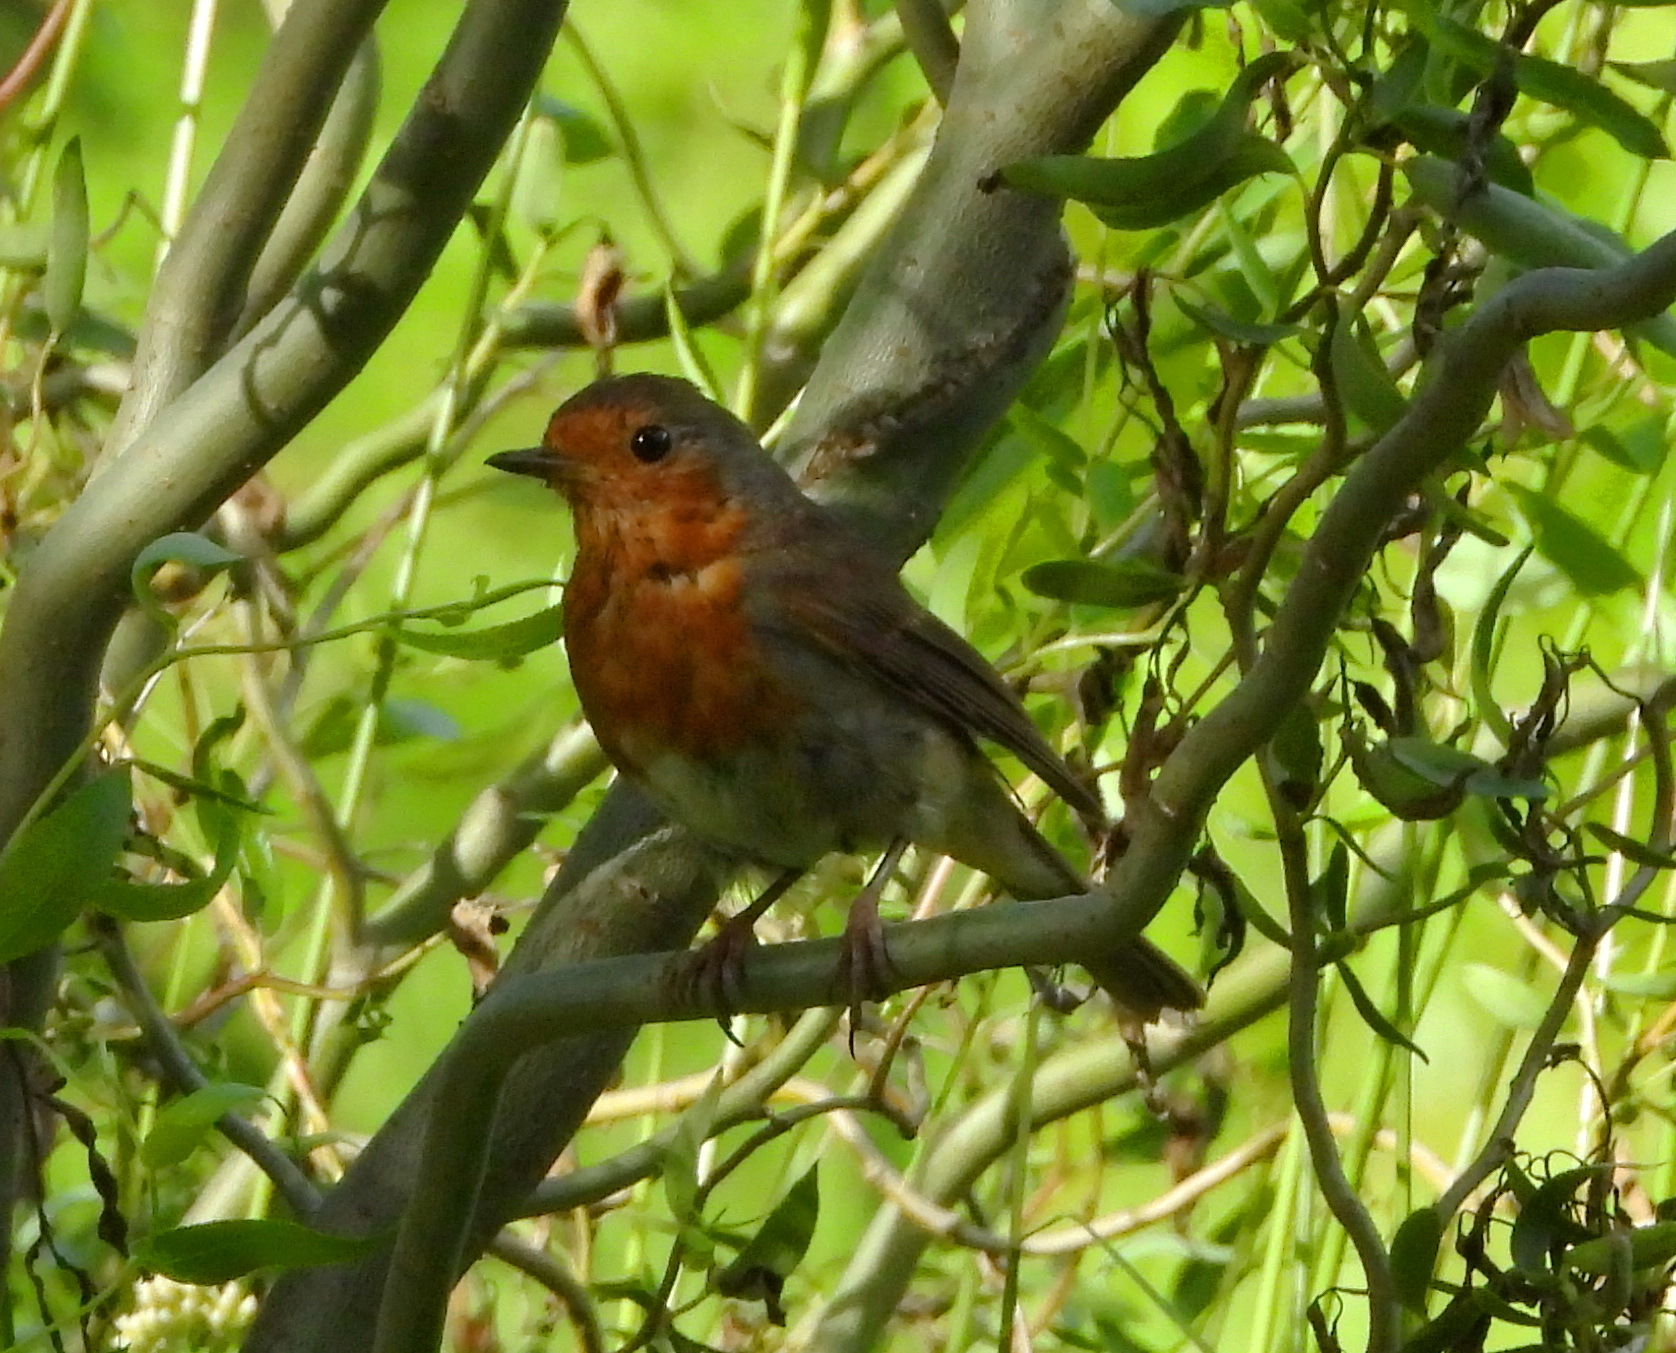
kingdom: Animalia
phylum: Chordata
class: Aves
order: Passeriformes
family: Muscicapidae
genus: Erithacus
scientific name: Erithacus rubecula
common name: European robin
